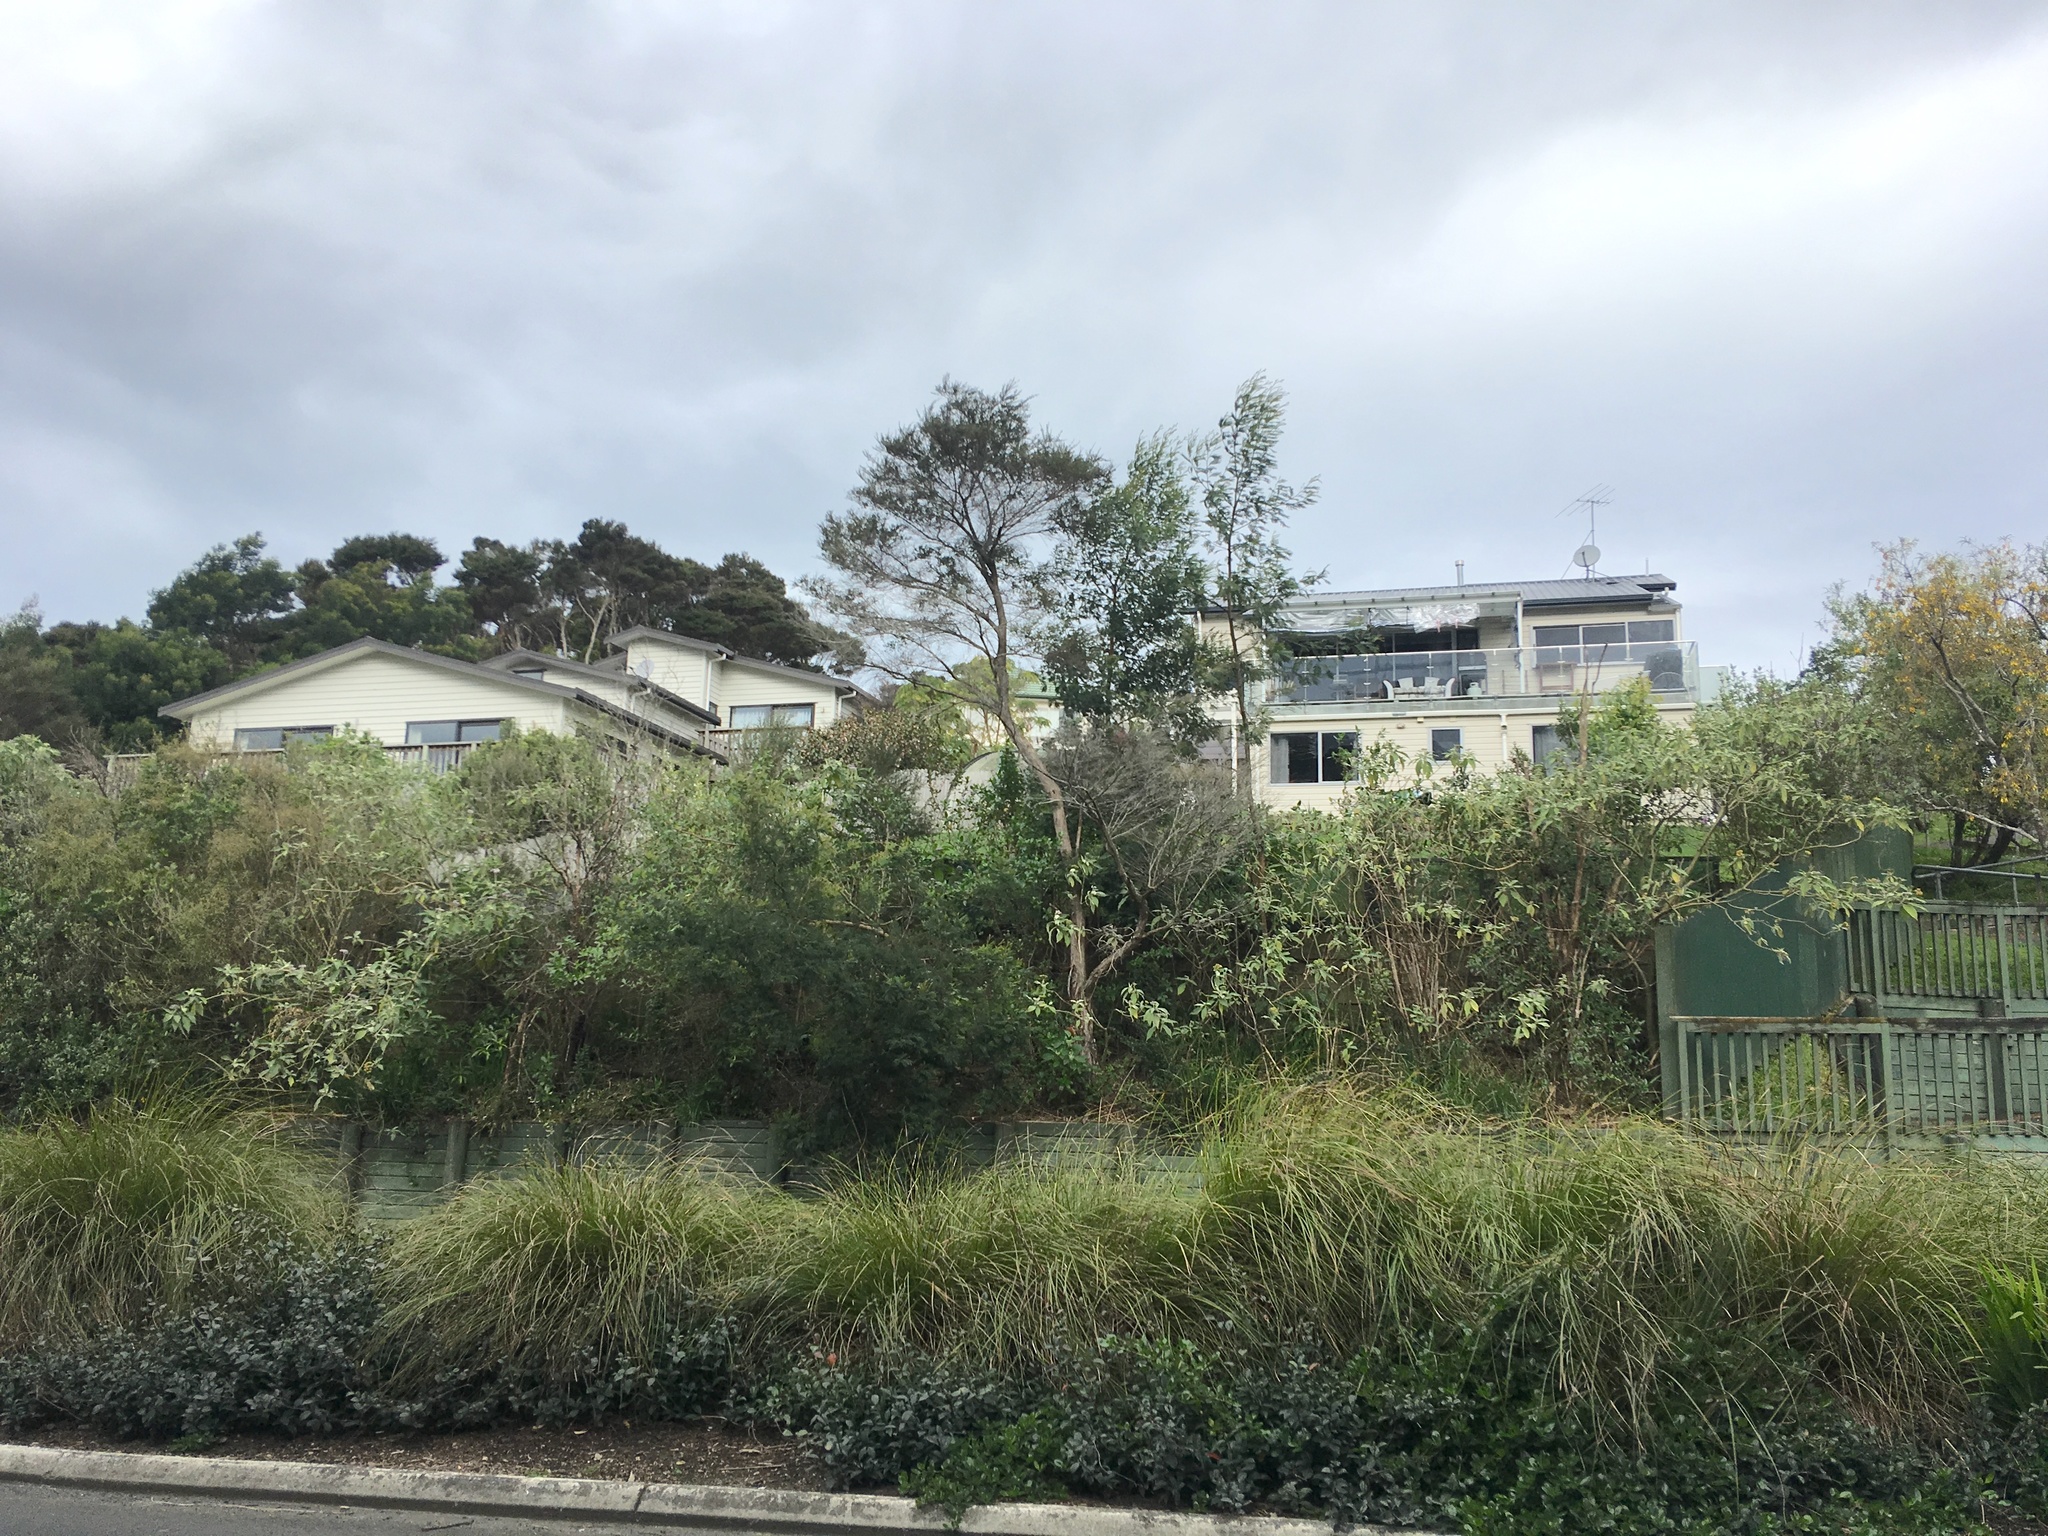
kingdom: Plantae
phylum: Tracheophyta
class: Magnoliopsida
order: Solanales
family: Solanaceae
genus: Solanum
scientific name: Solanum mauritianum
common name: Earleaf nightshade
